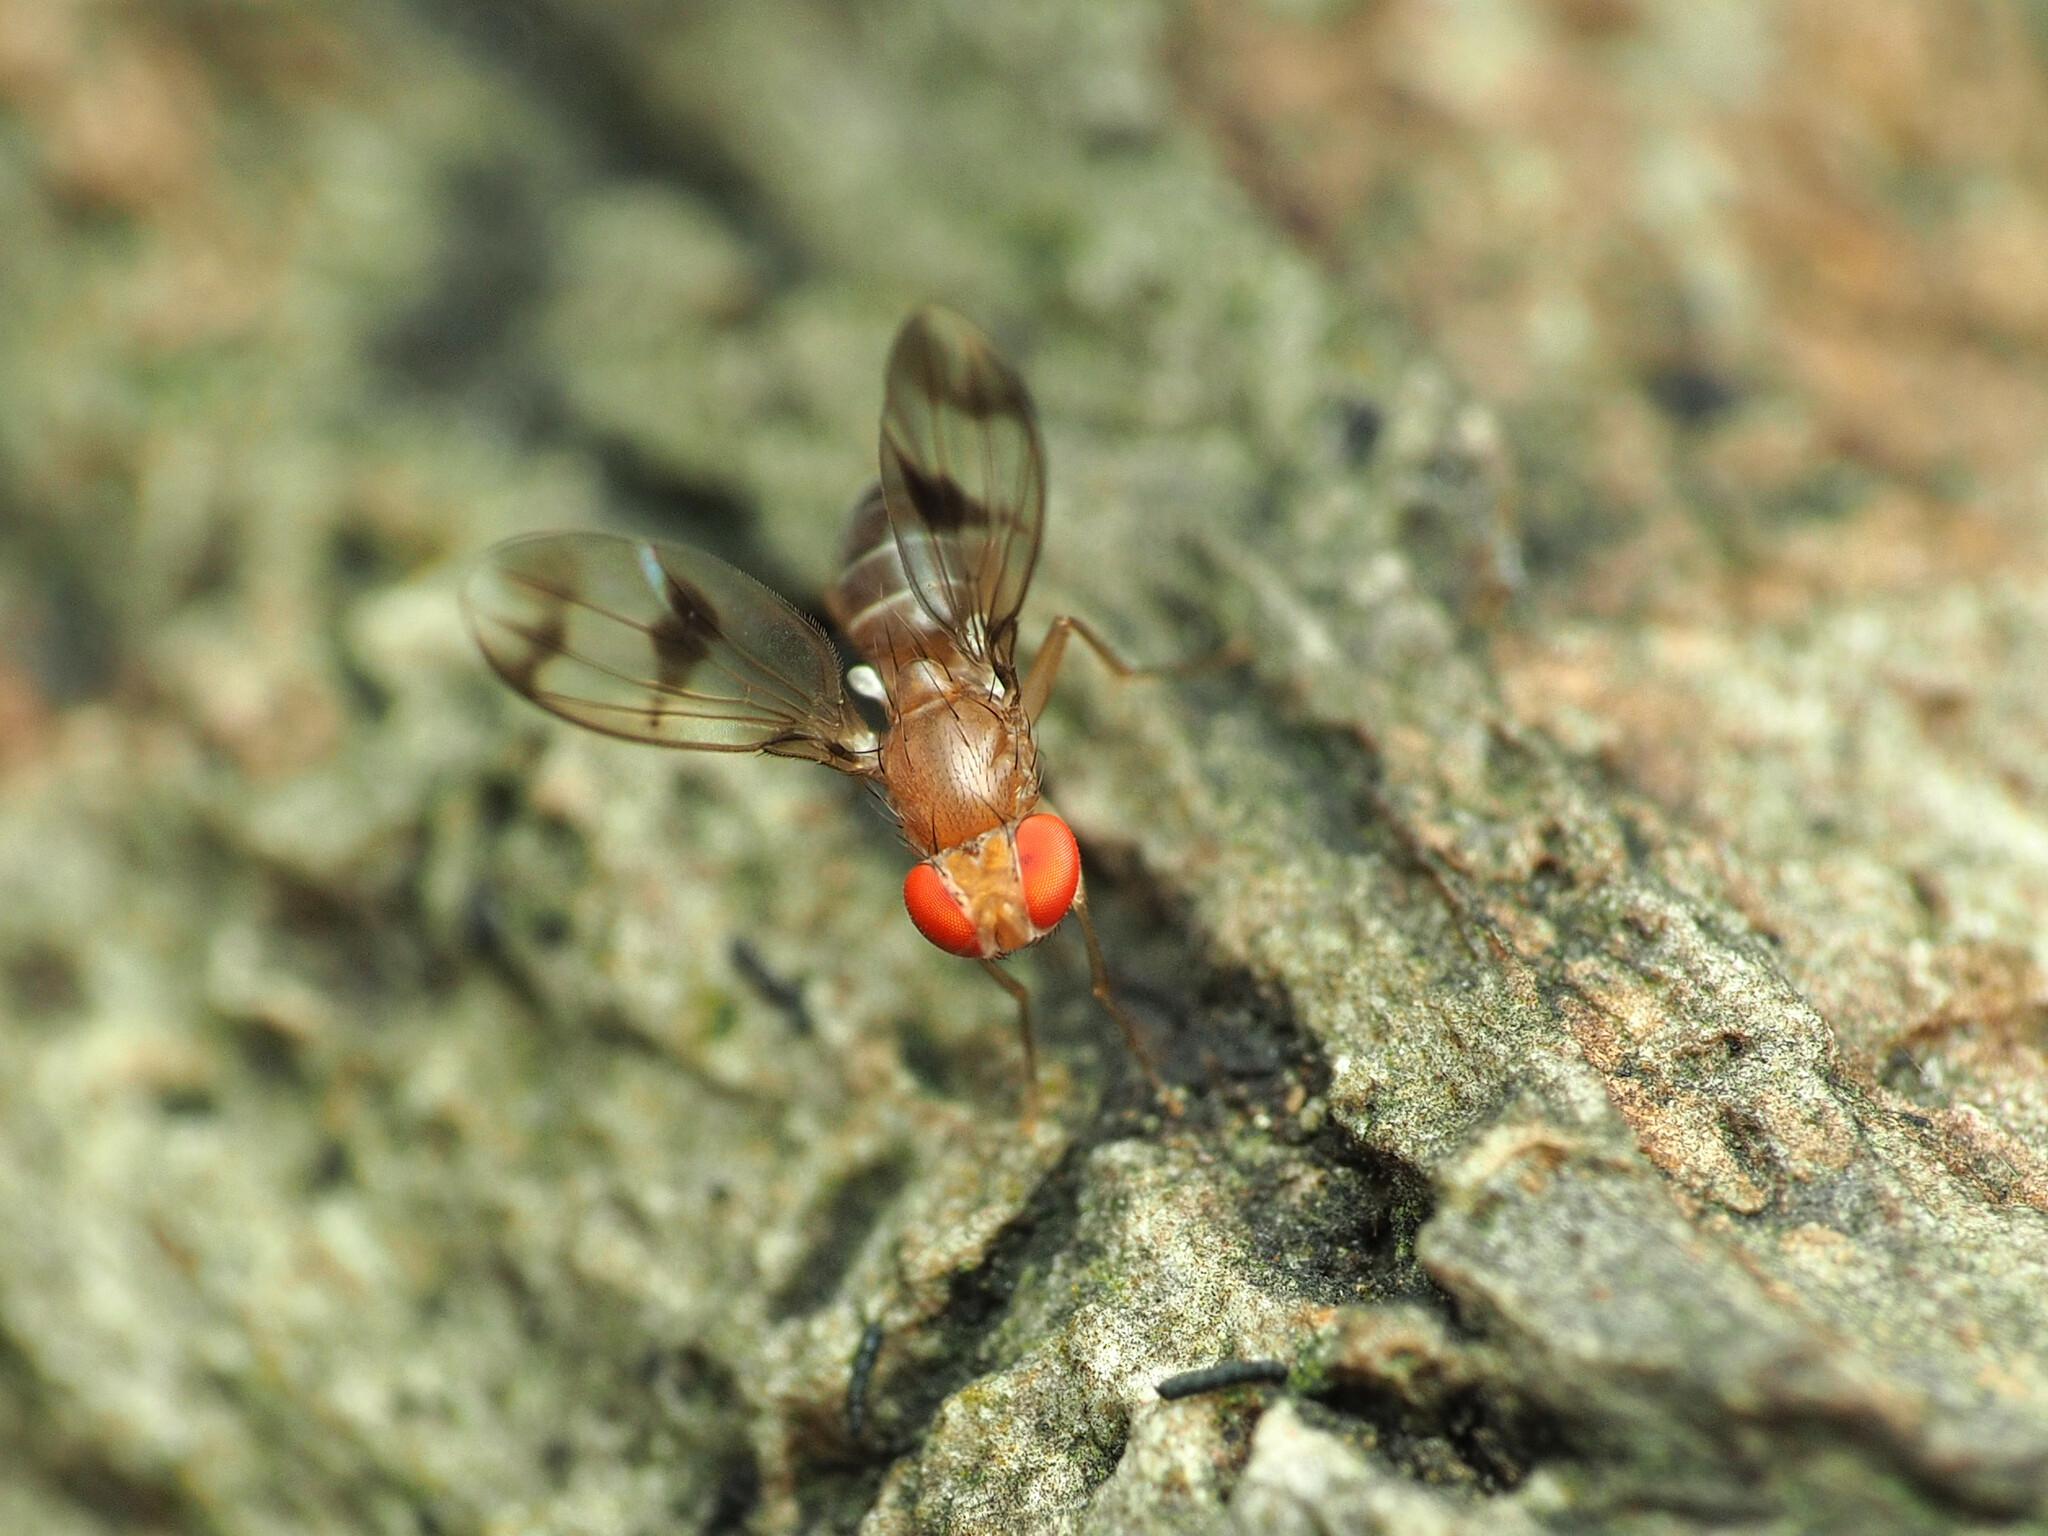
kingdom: Animalia
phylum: Arthropoda
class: Insecta
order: Diptera
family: Drosophilidae
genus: Chymomyza
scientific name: Chymomyza amoena
